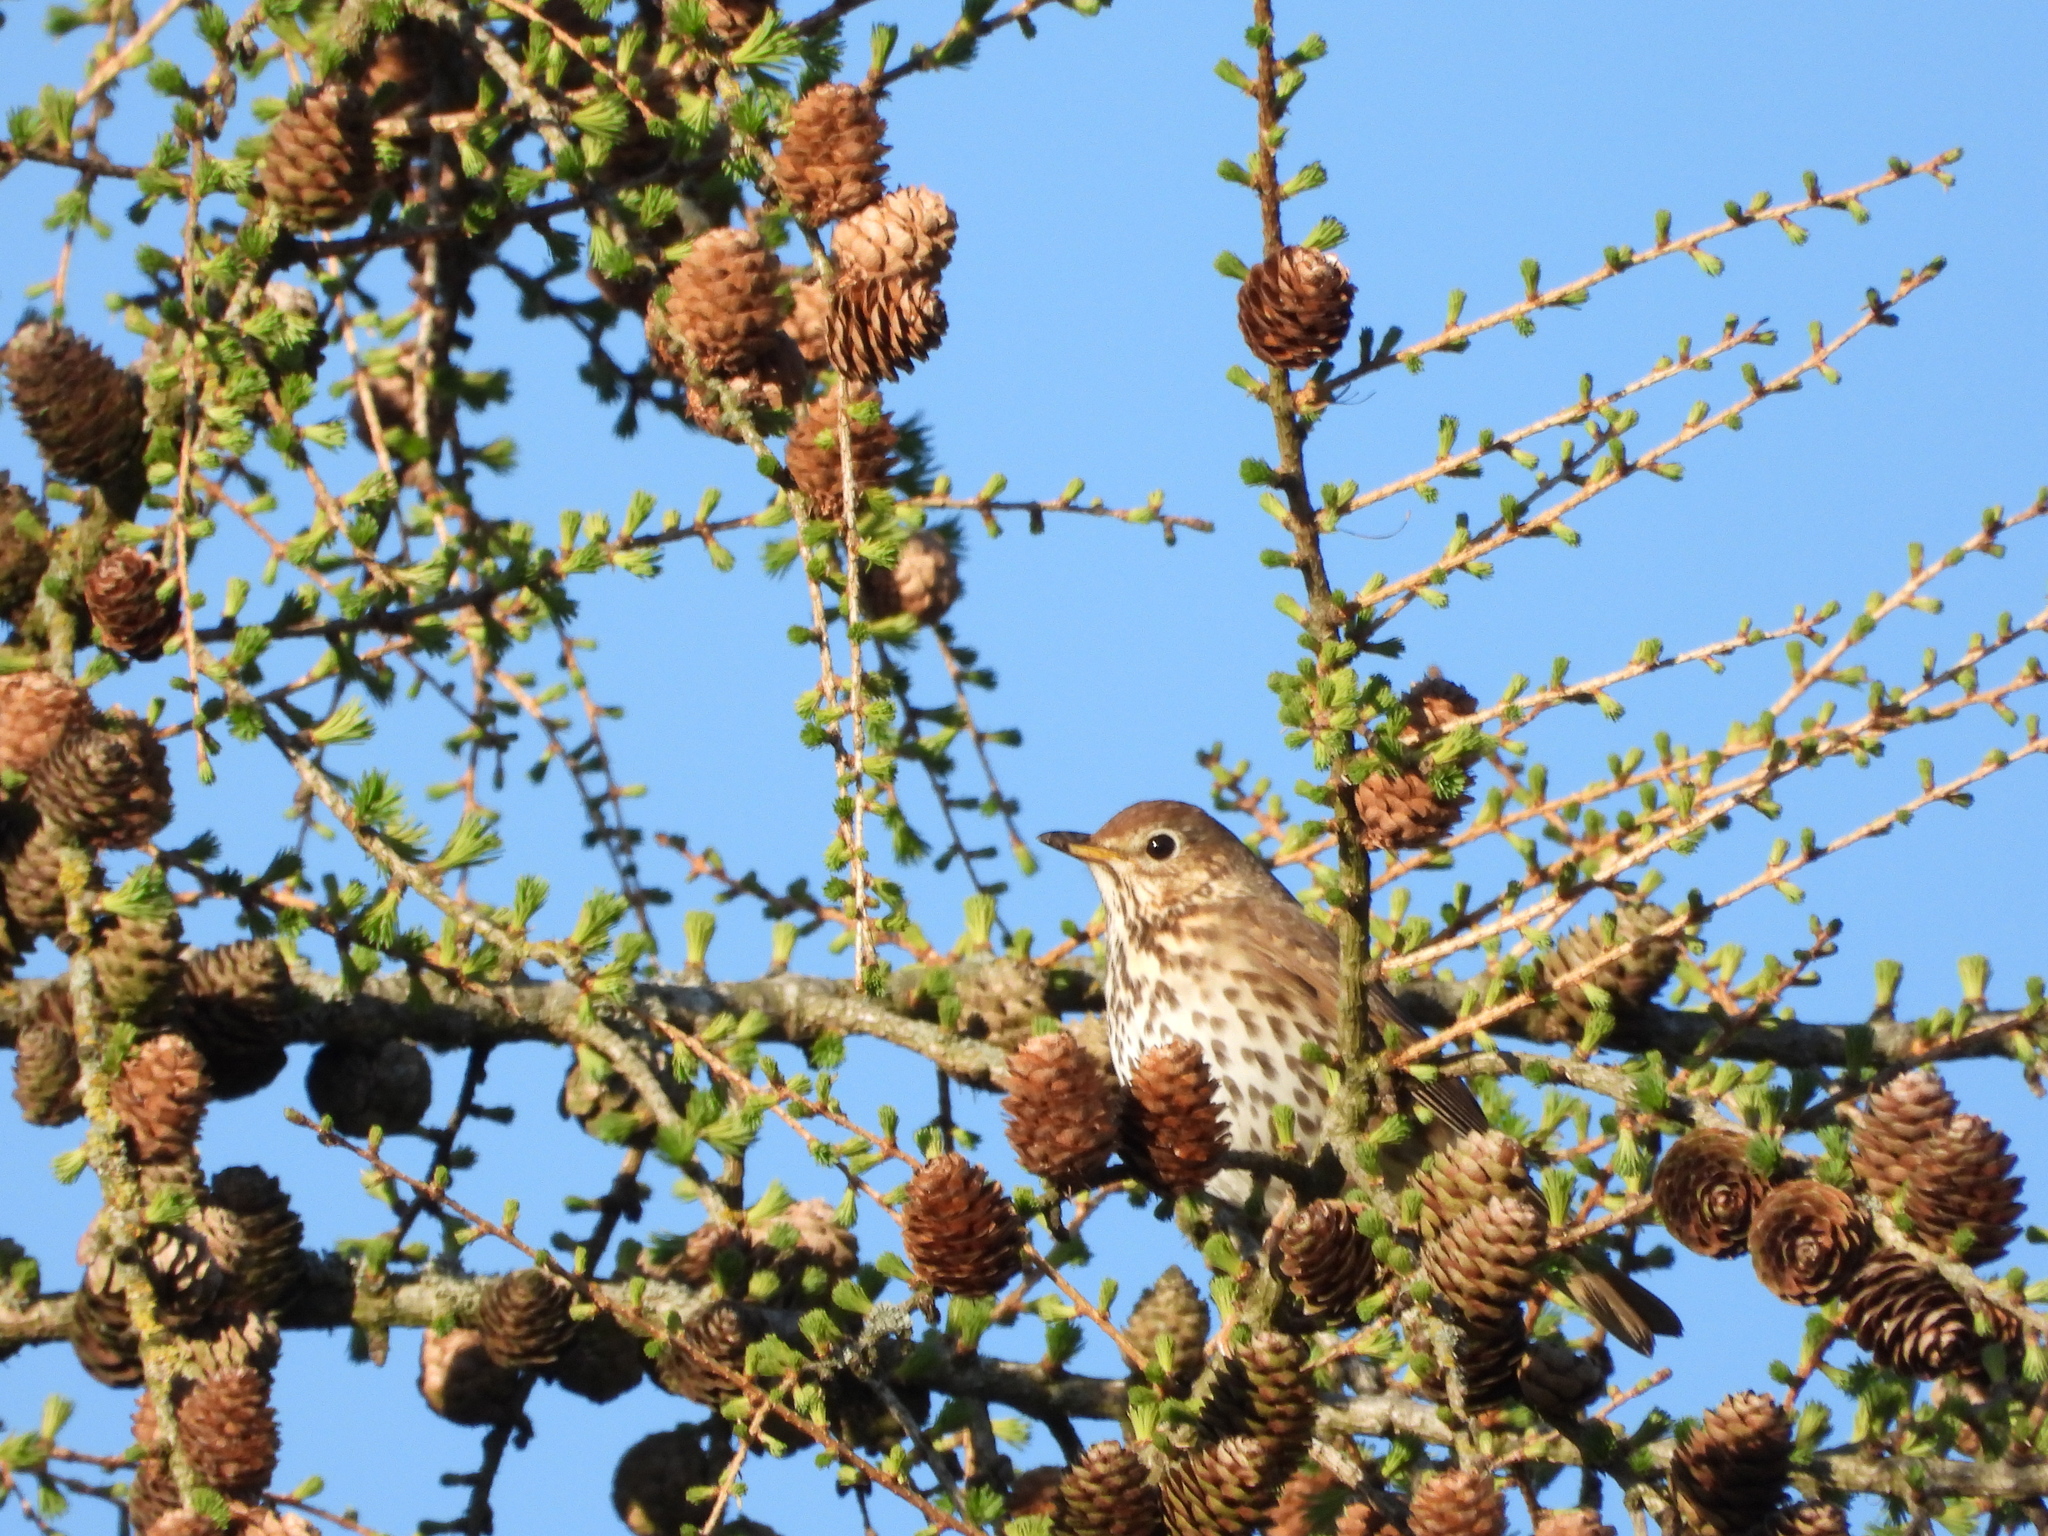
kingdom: Animalia
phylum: Chordata
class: Aves
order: Passeriformes
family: Turdidae
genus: Turdus
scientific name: Turdus philomelos
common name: Song thrush
